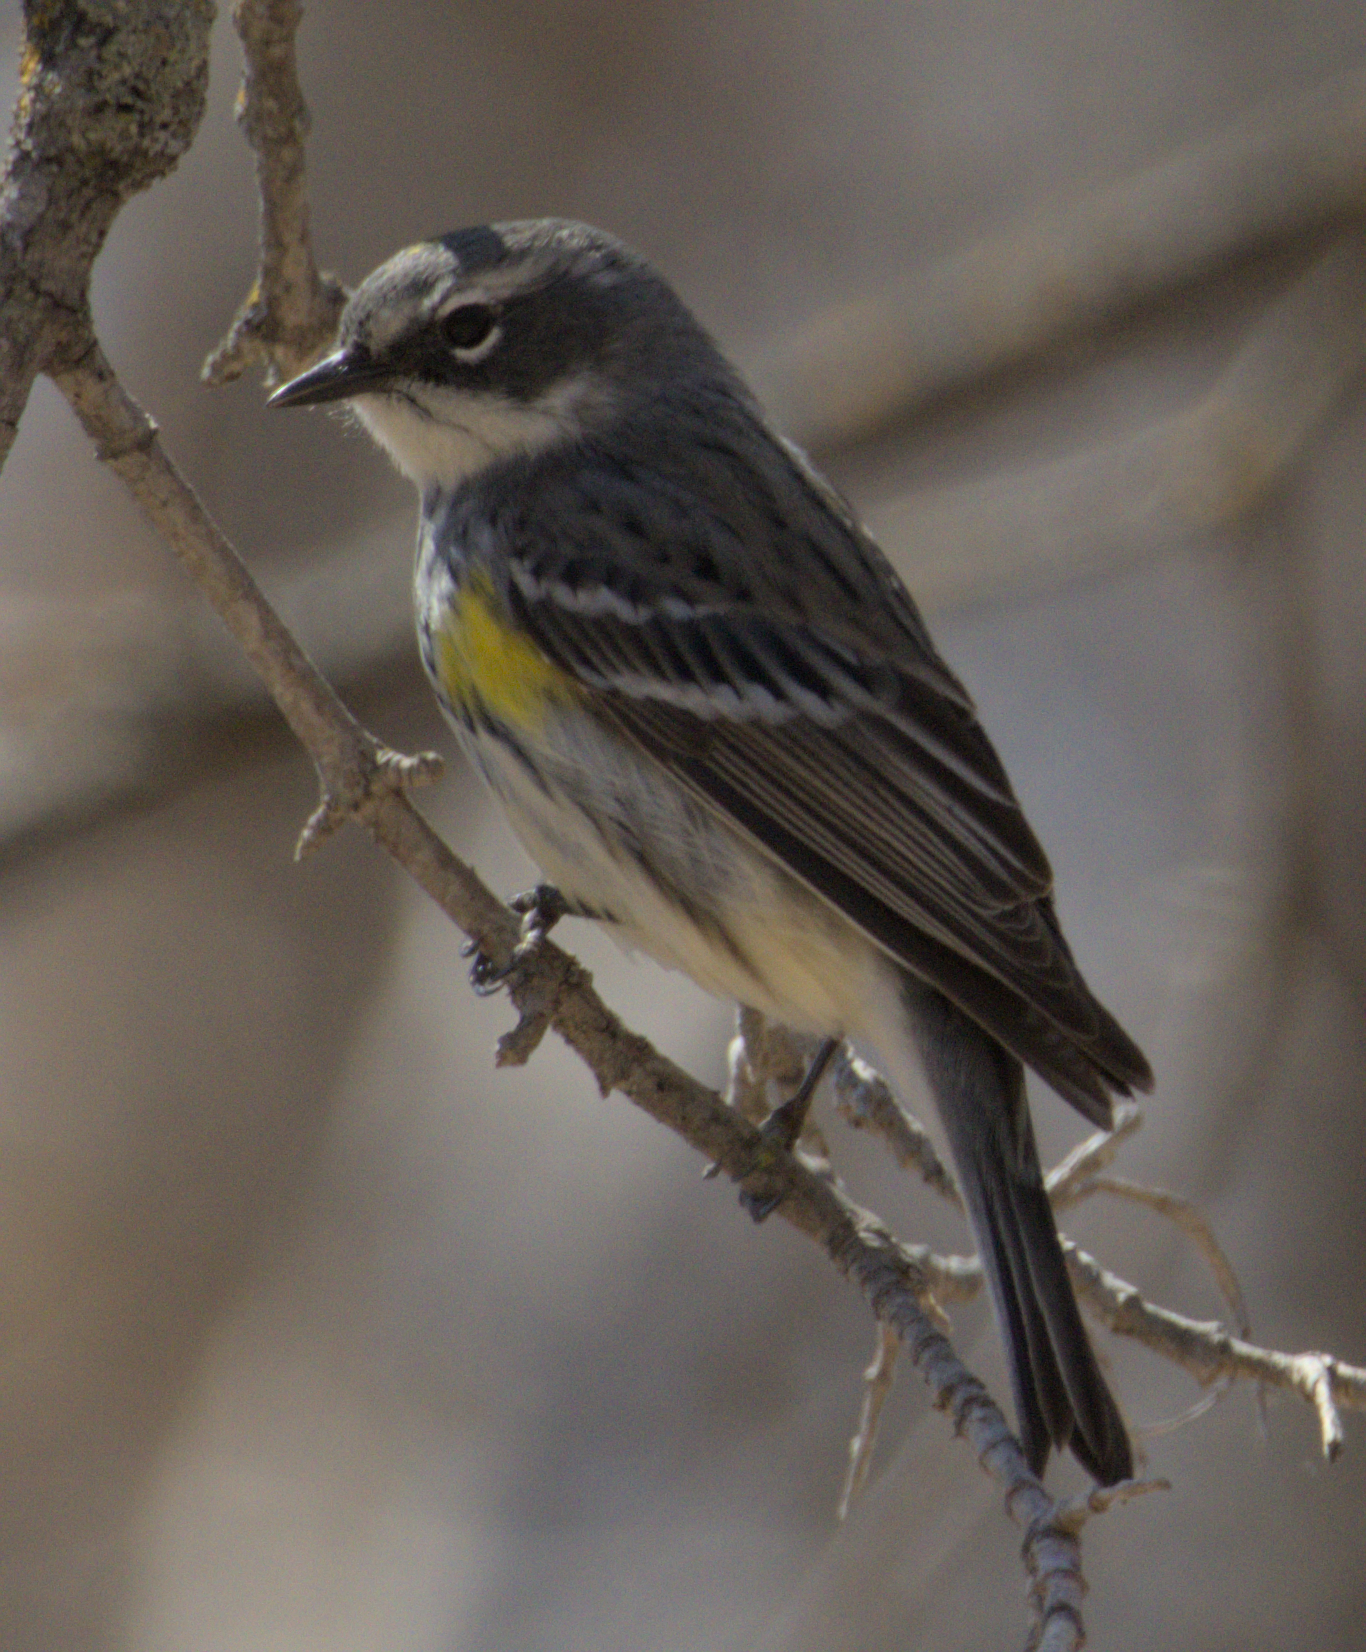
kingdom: Animalia
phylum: Chordata
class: Aves
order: Passeriformes
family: Parulidae
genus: Setophaga
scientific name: Setophaga coronata
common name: Myrtle warbler
